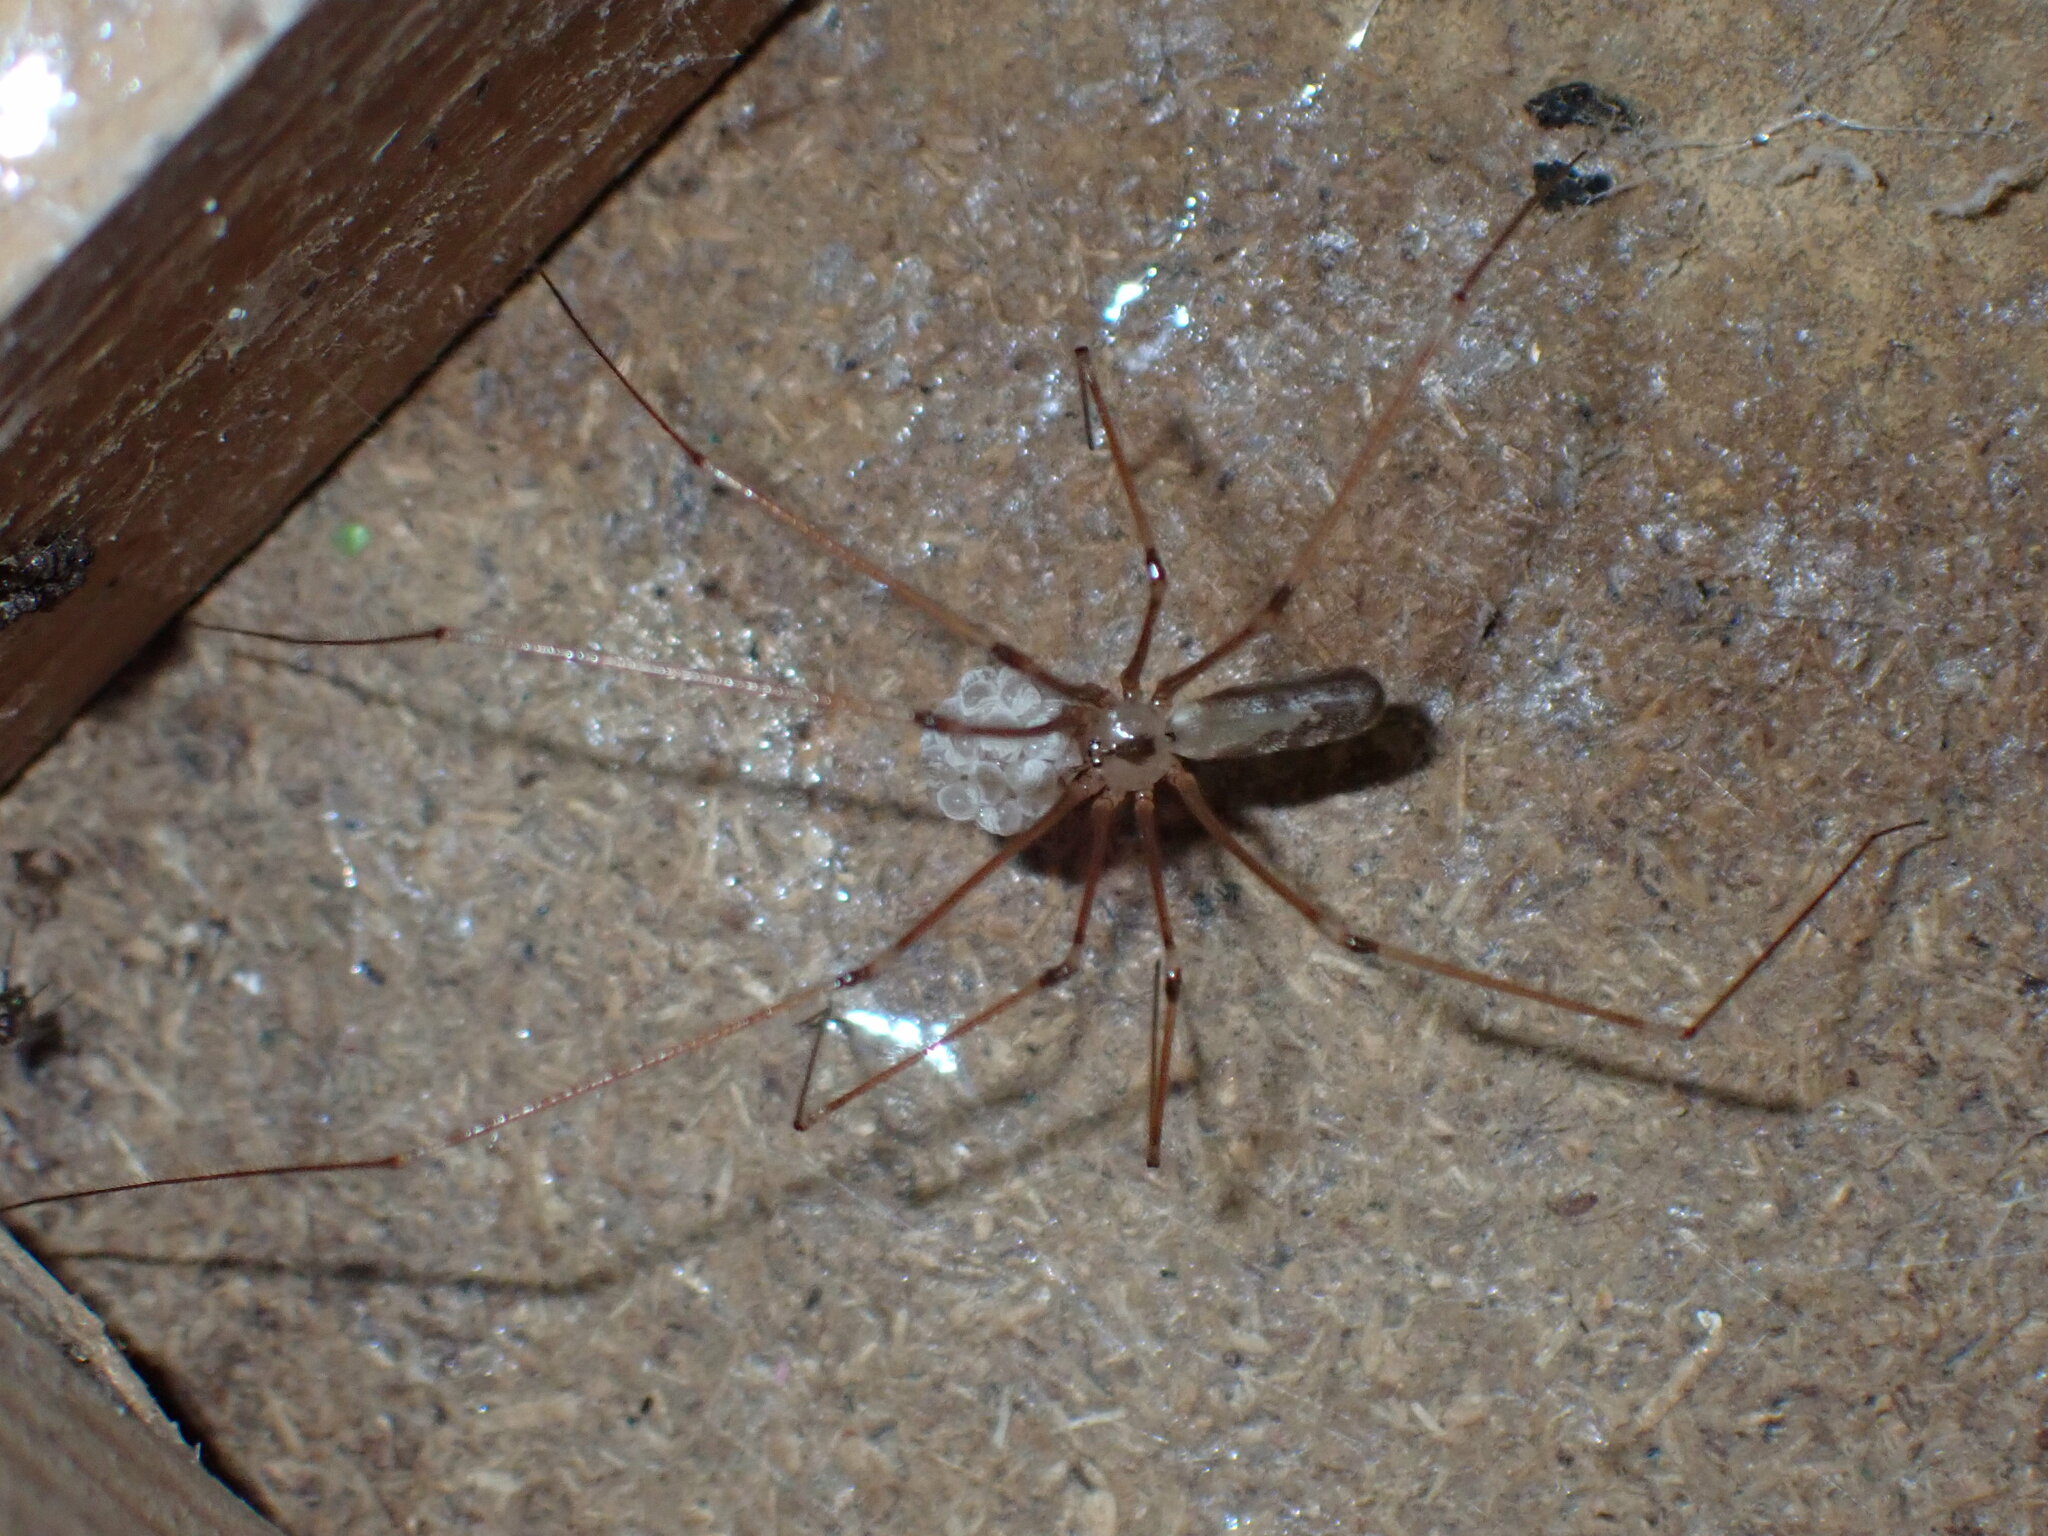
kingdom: Animalia
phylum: Arthropoda
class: Arachnida
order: Araneae
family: Pholcidae
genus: Pholcus
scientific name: Pholcus phalangioides
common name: Longbodied cellar spider
